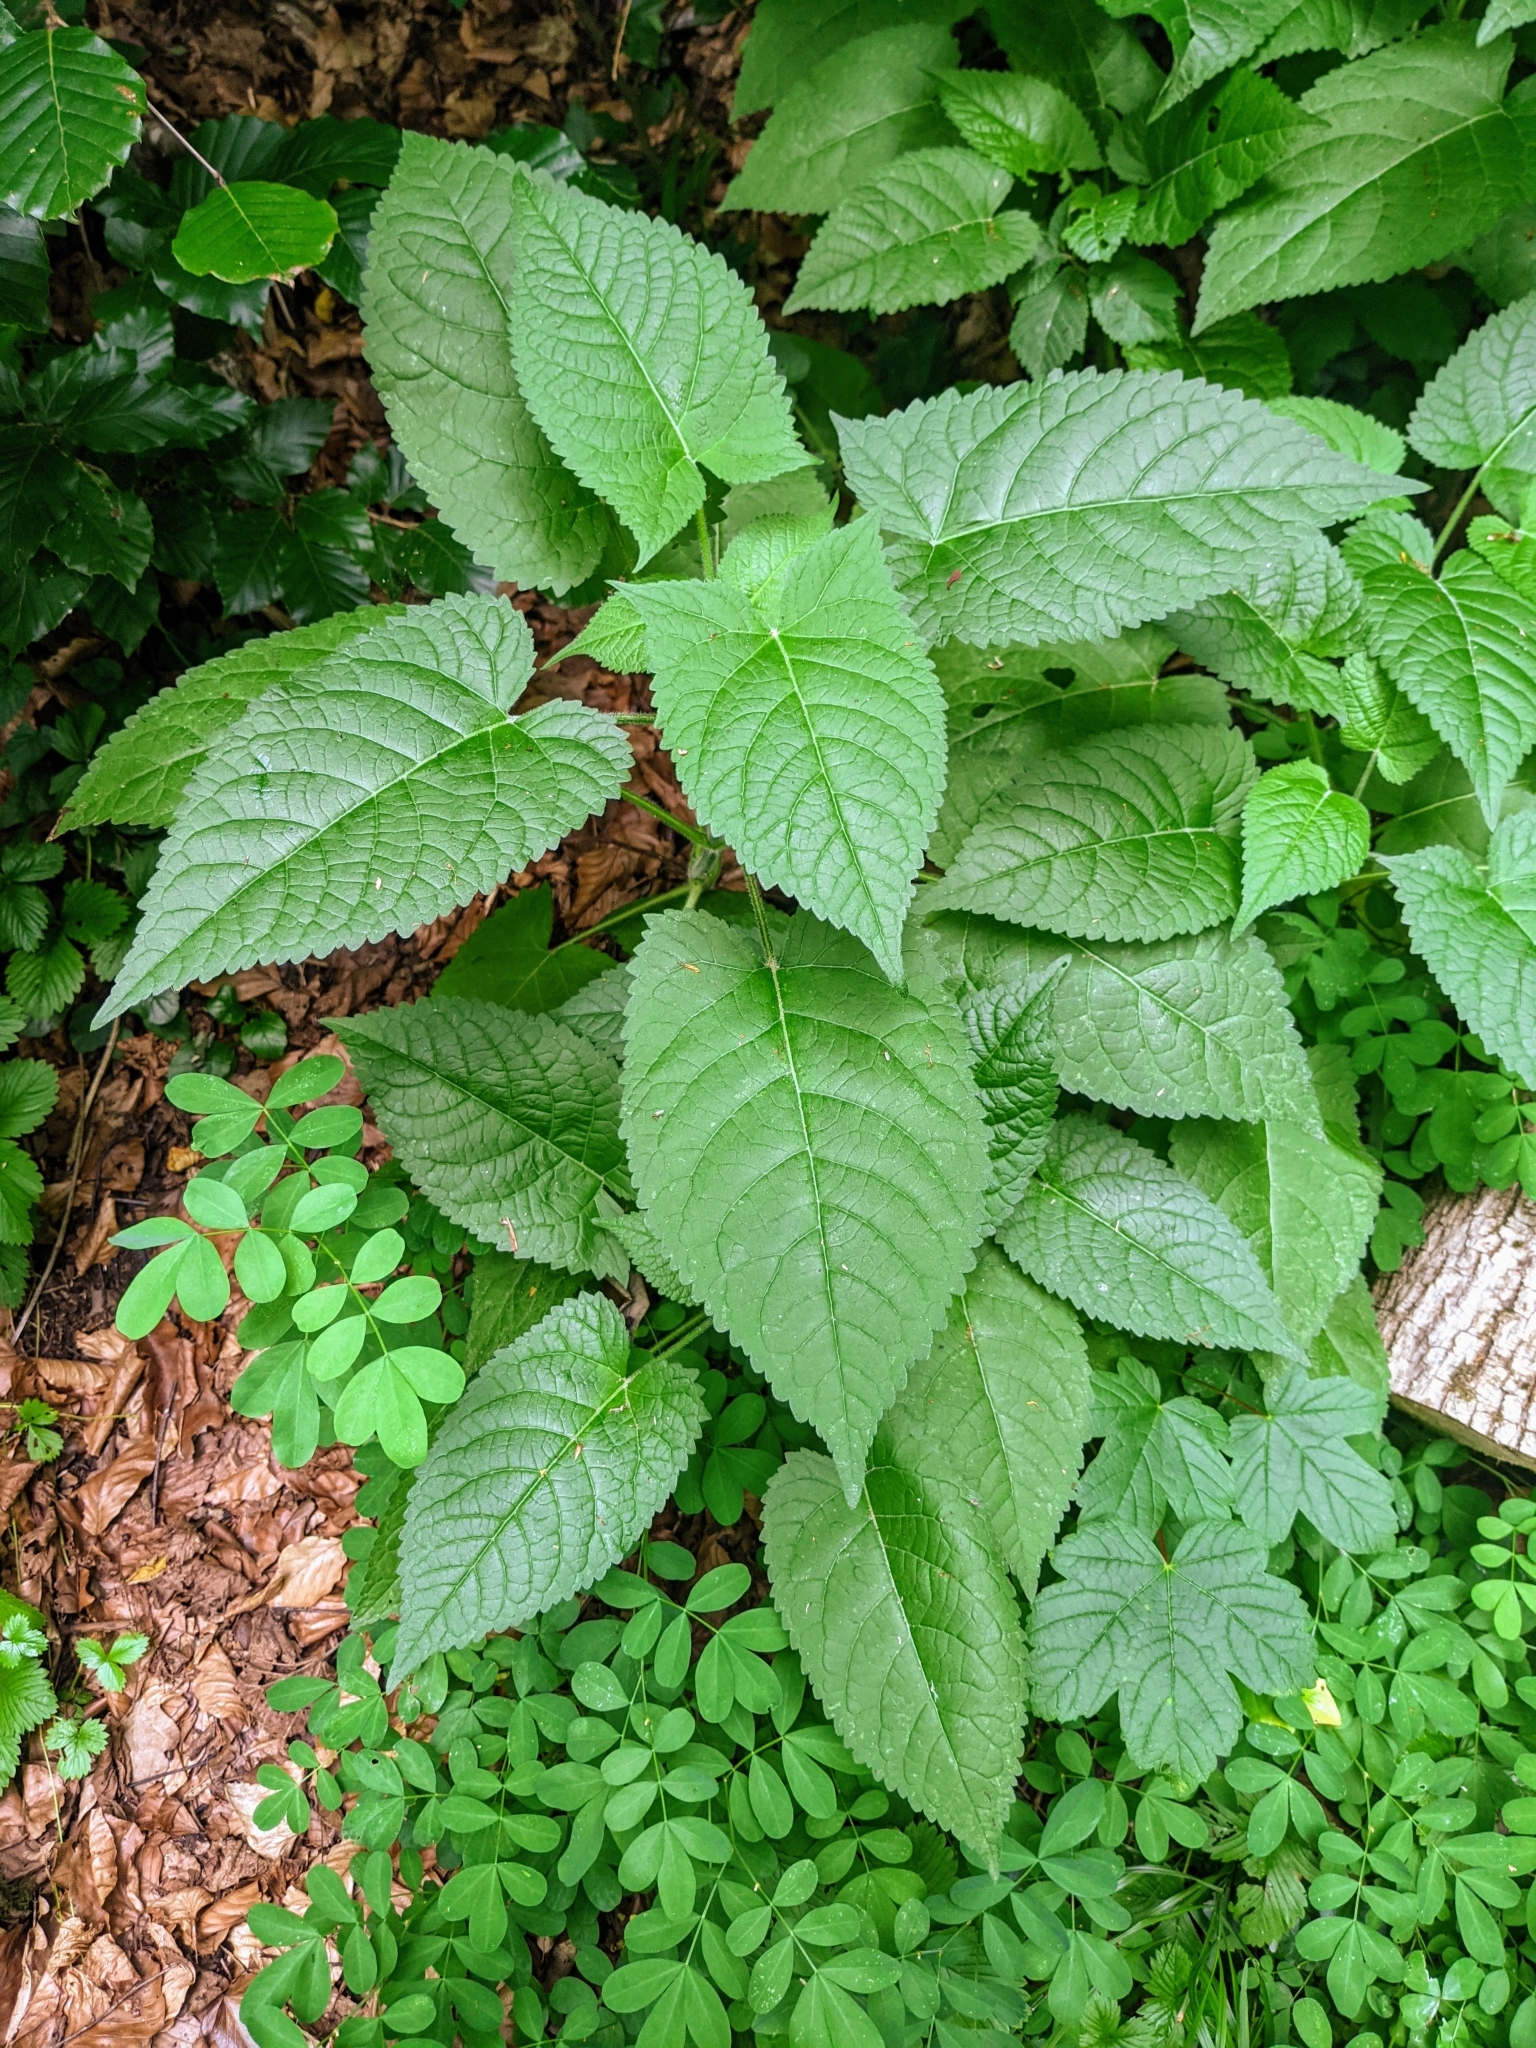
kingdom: Plantae
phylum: Tracheophyta
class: Magnoliopsida
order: Lamiales
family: Lamiaceae
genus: Salvia
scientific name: Salvia glutinosa
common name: Sticky clary
